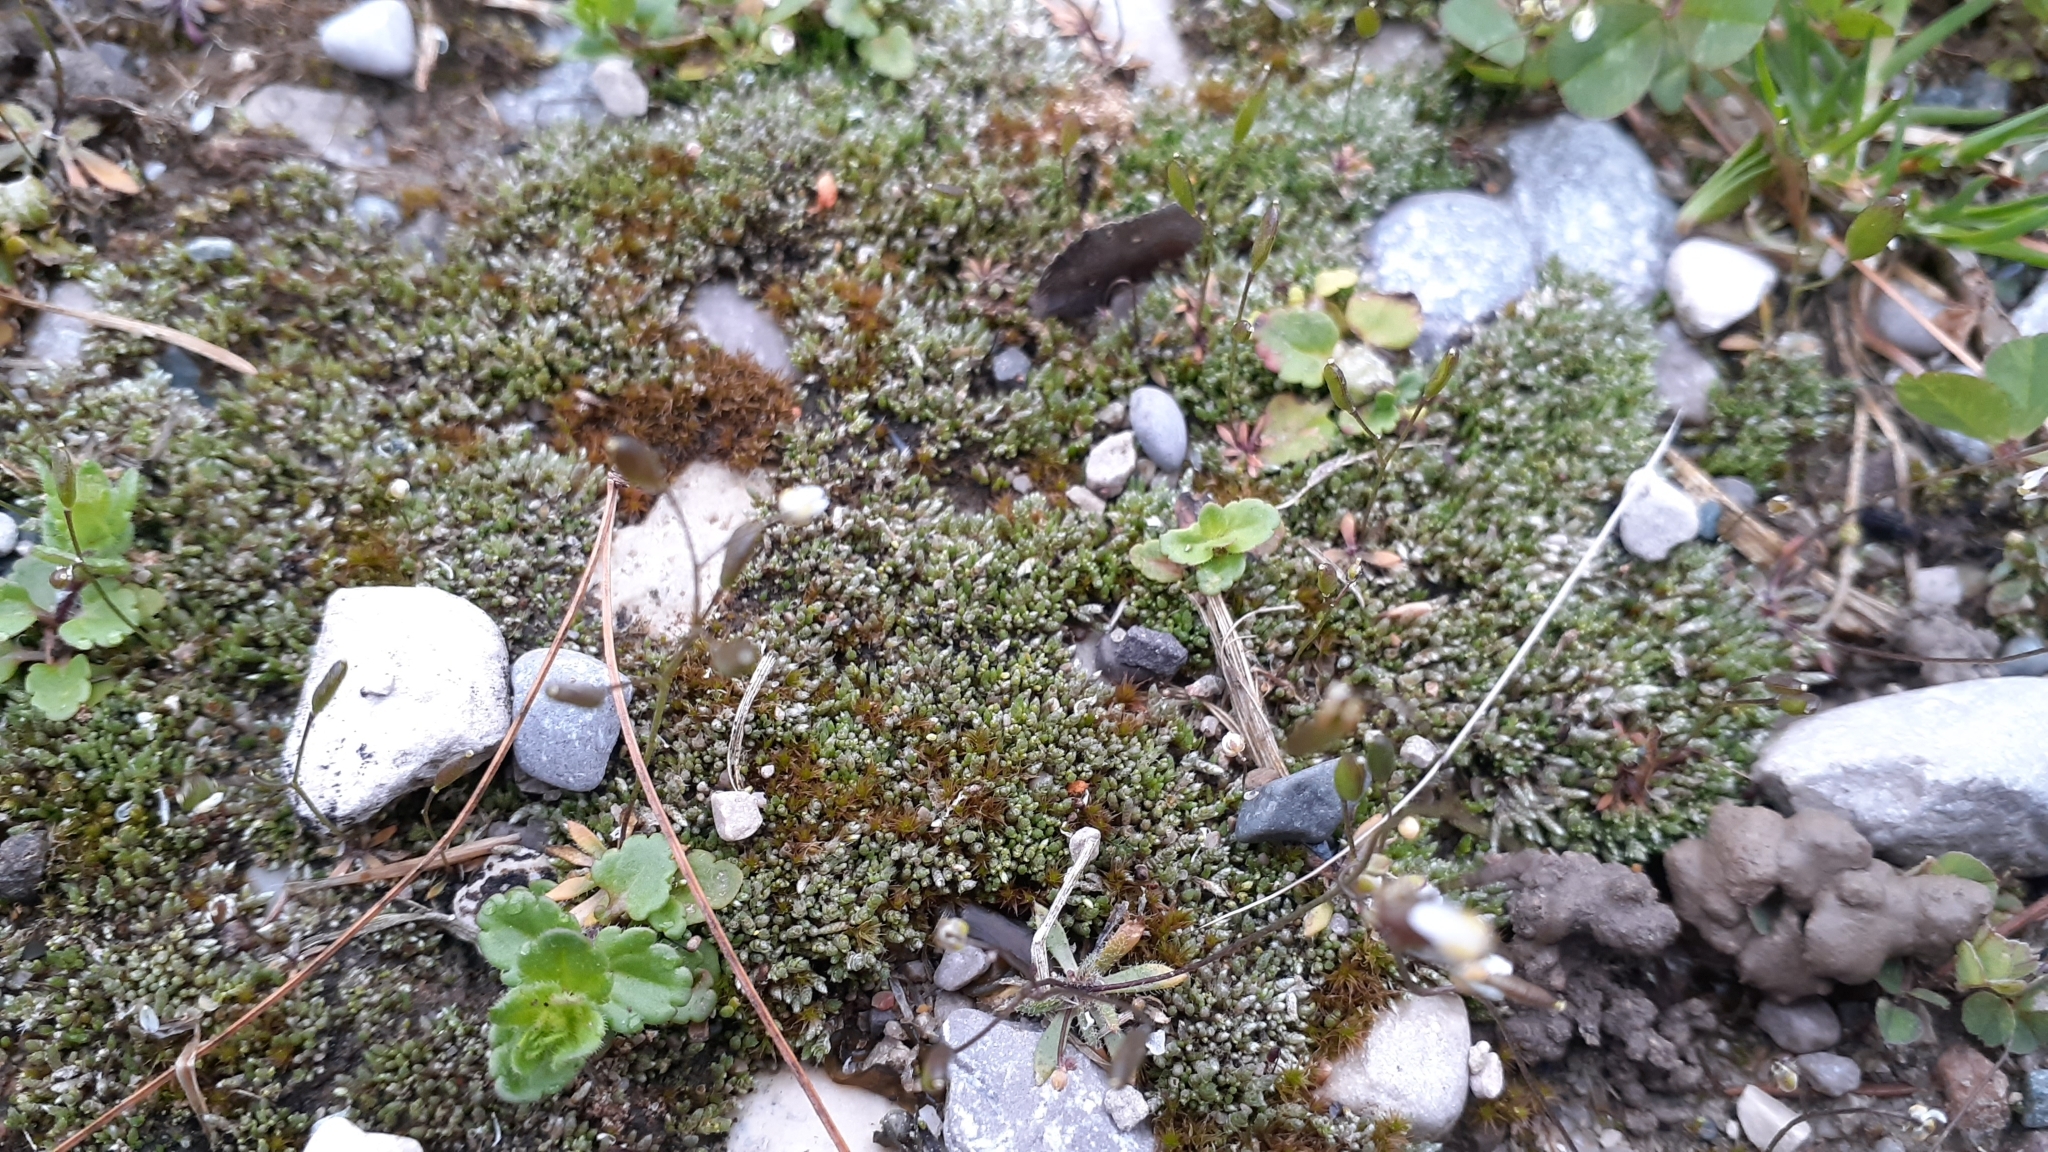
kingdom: Plantae
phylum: Bryophyta
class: Bryopsida
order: Bryales
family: Bryaceae
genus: Bryum
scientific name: Bryum argenteum
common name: Silver-moss
